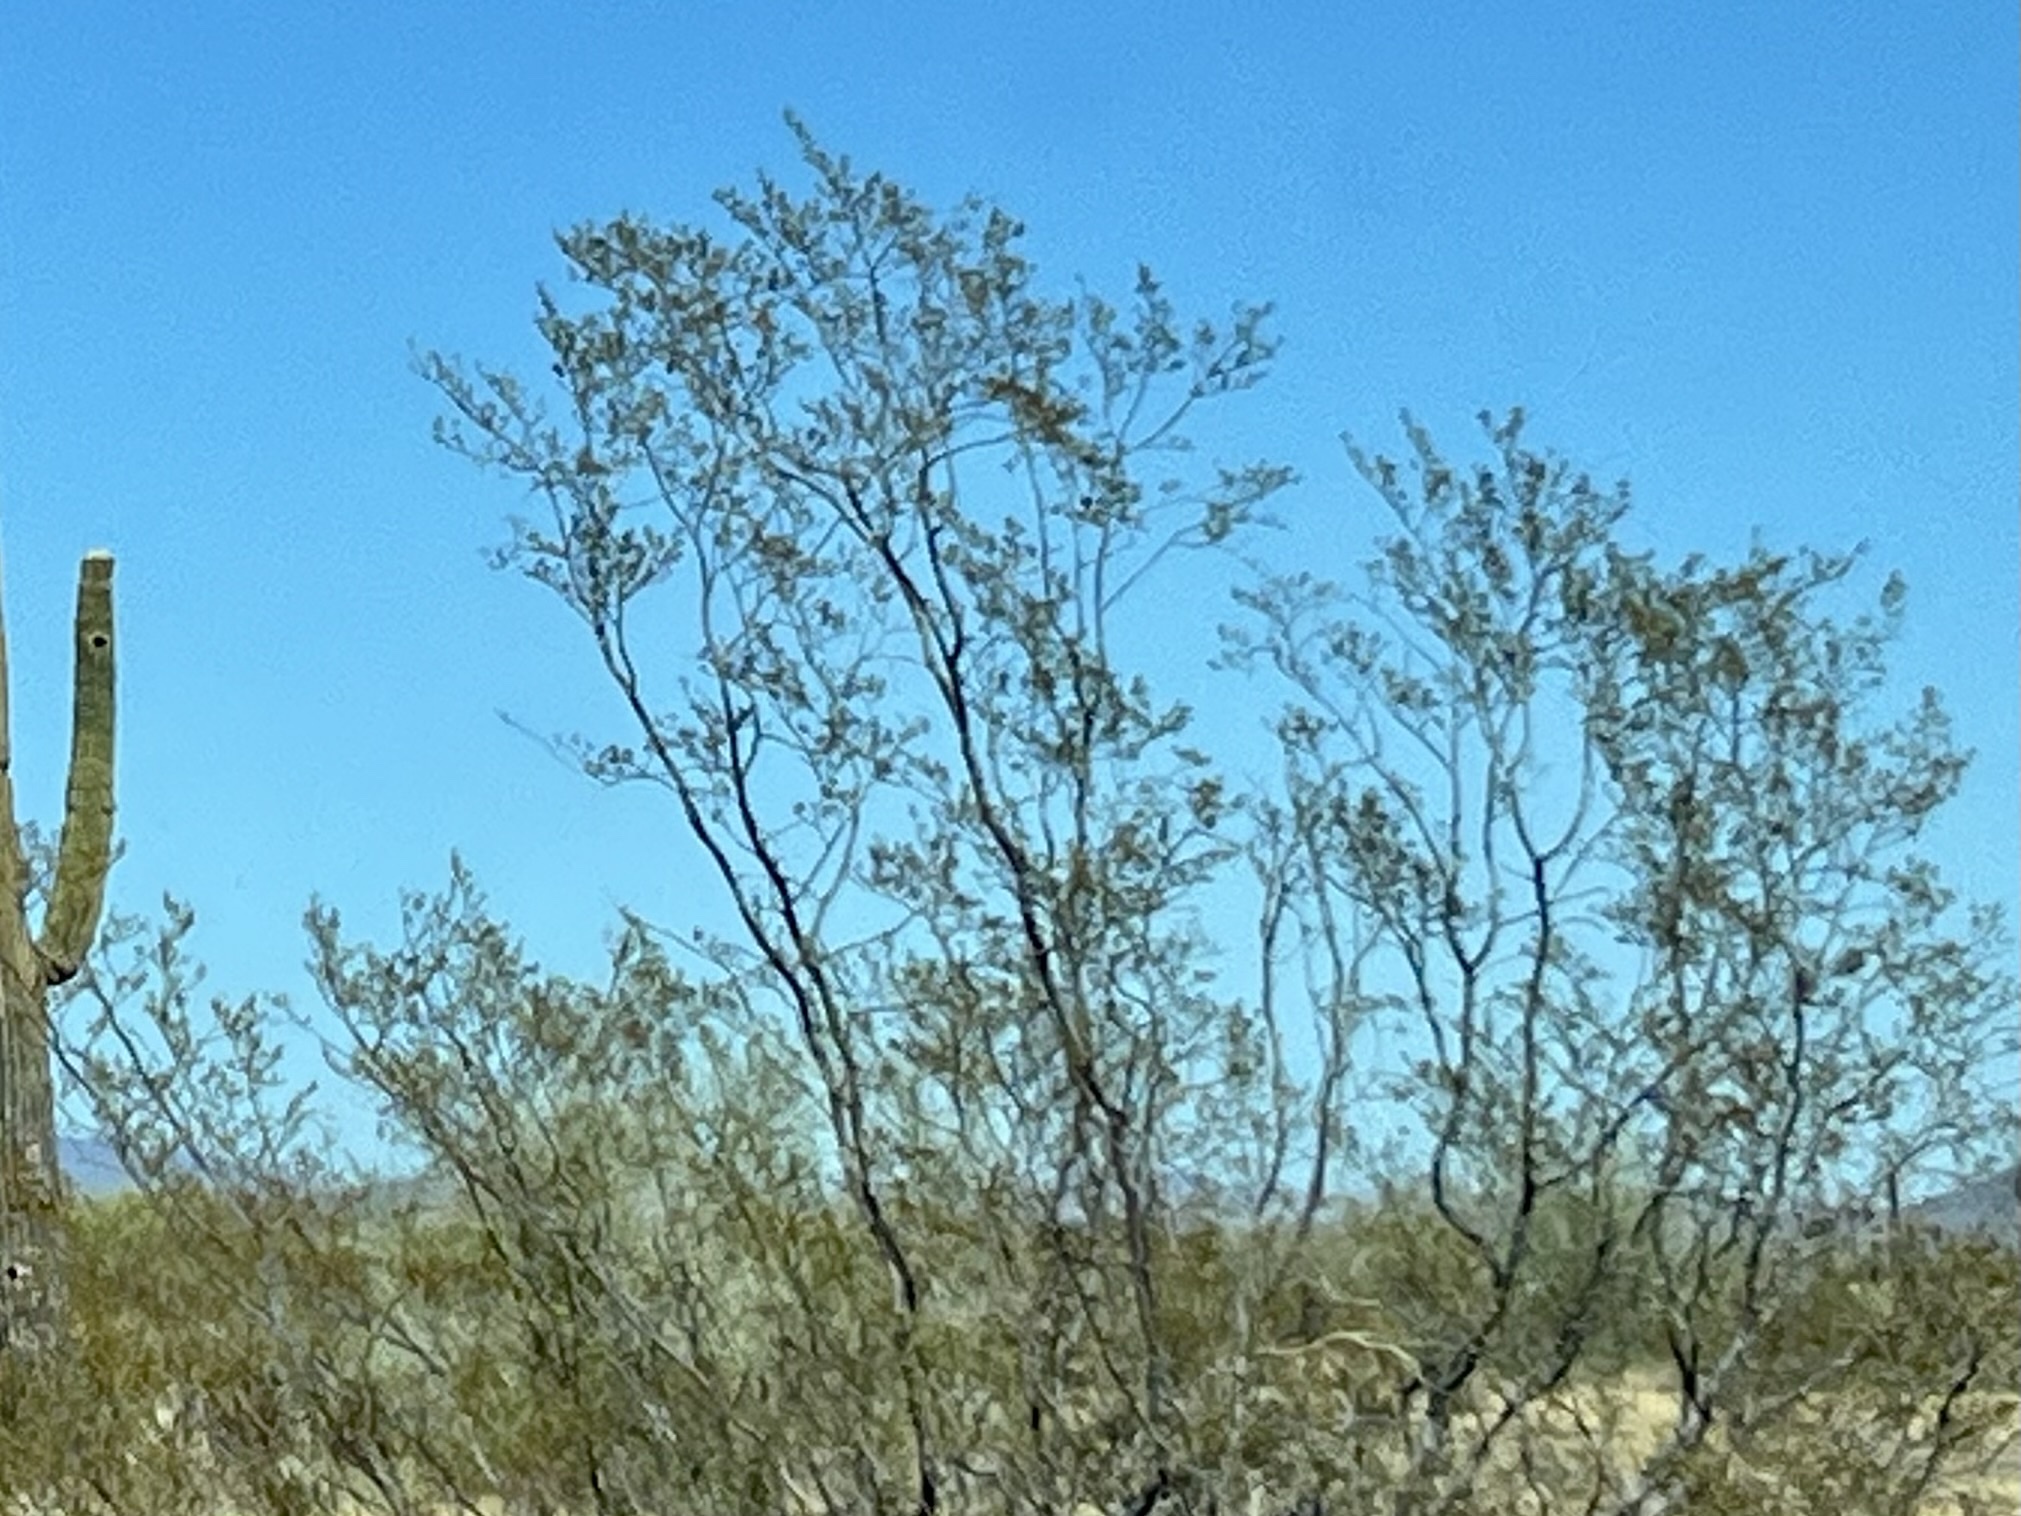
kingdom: Plantae
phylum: Tracheophyta
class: Magnoliopsida
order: Zygophyllales
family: Zygophyllaceae
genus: Larrea
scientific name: Larrea tridentata
